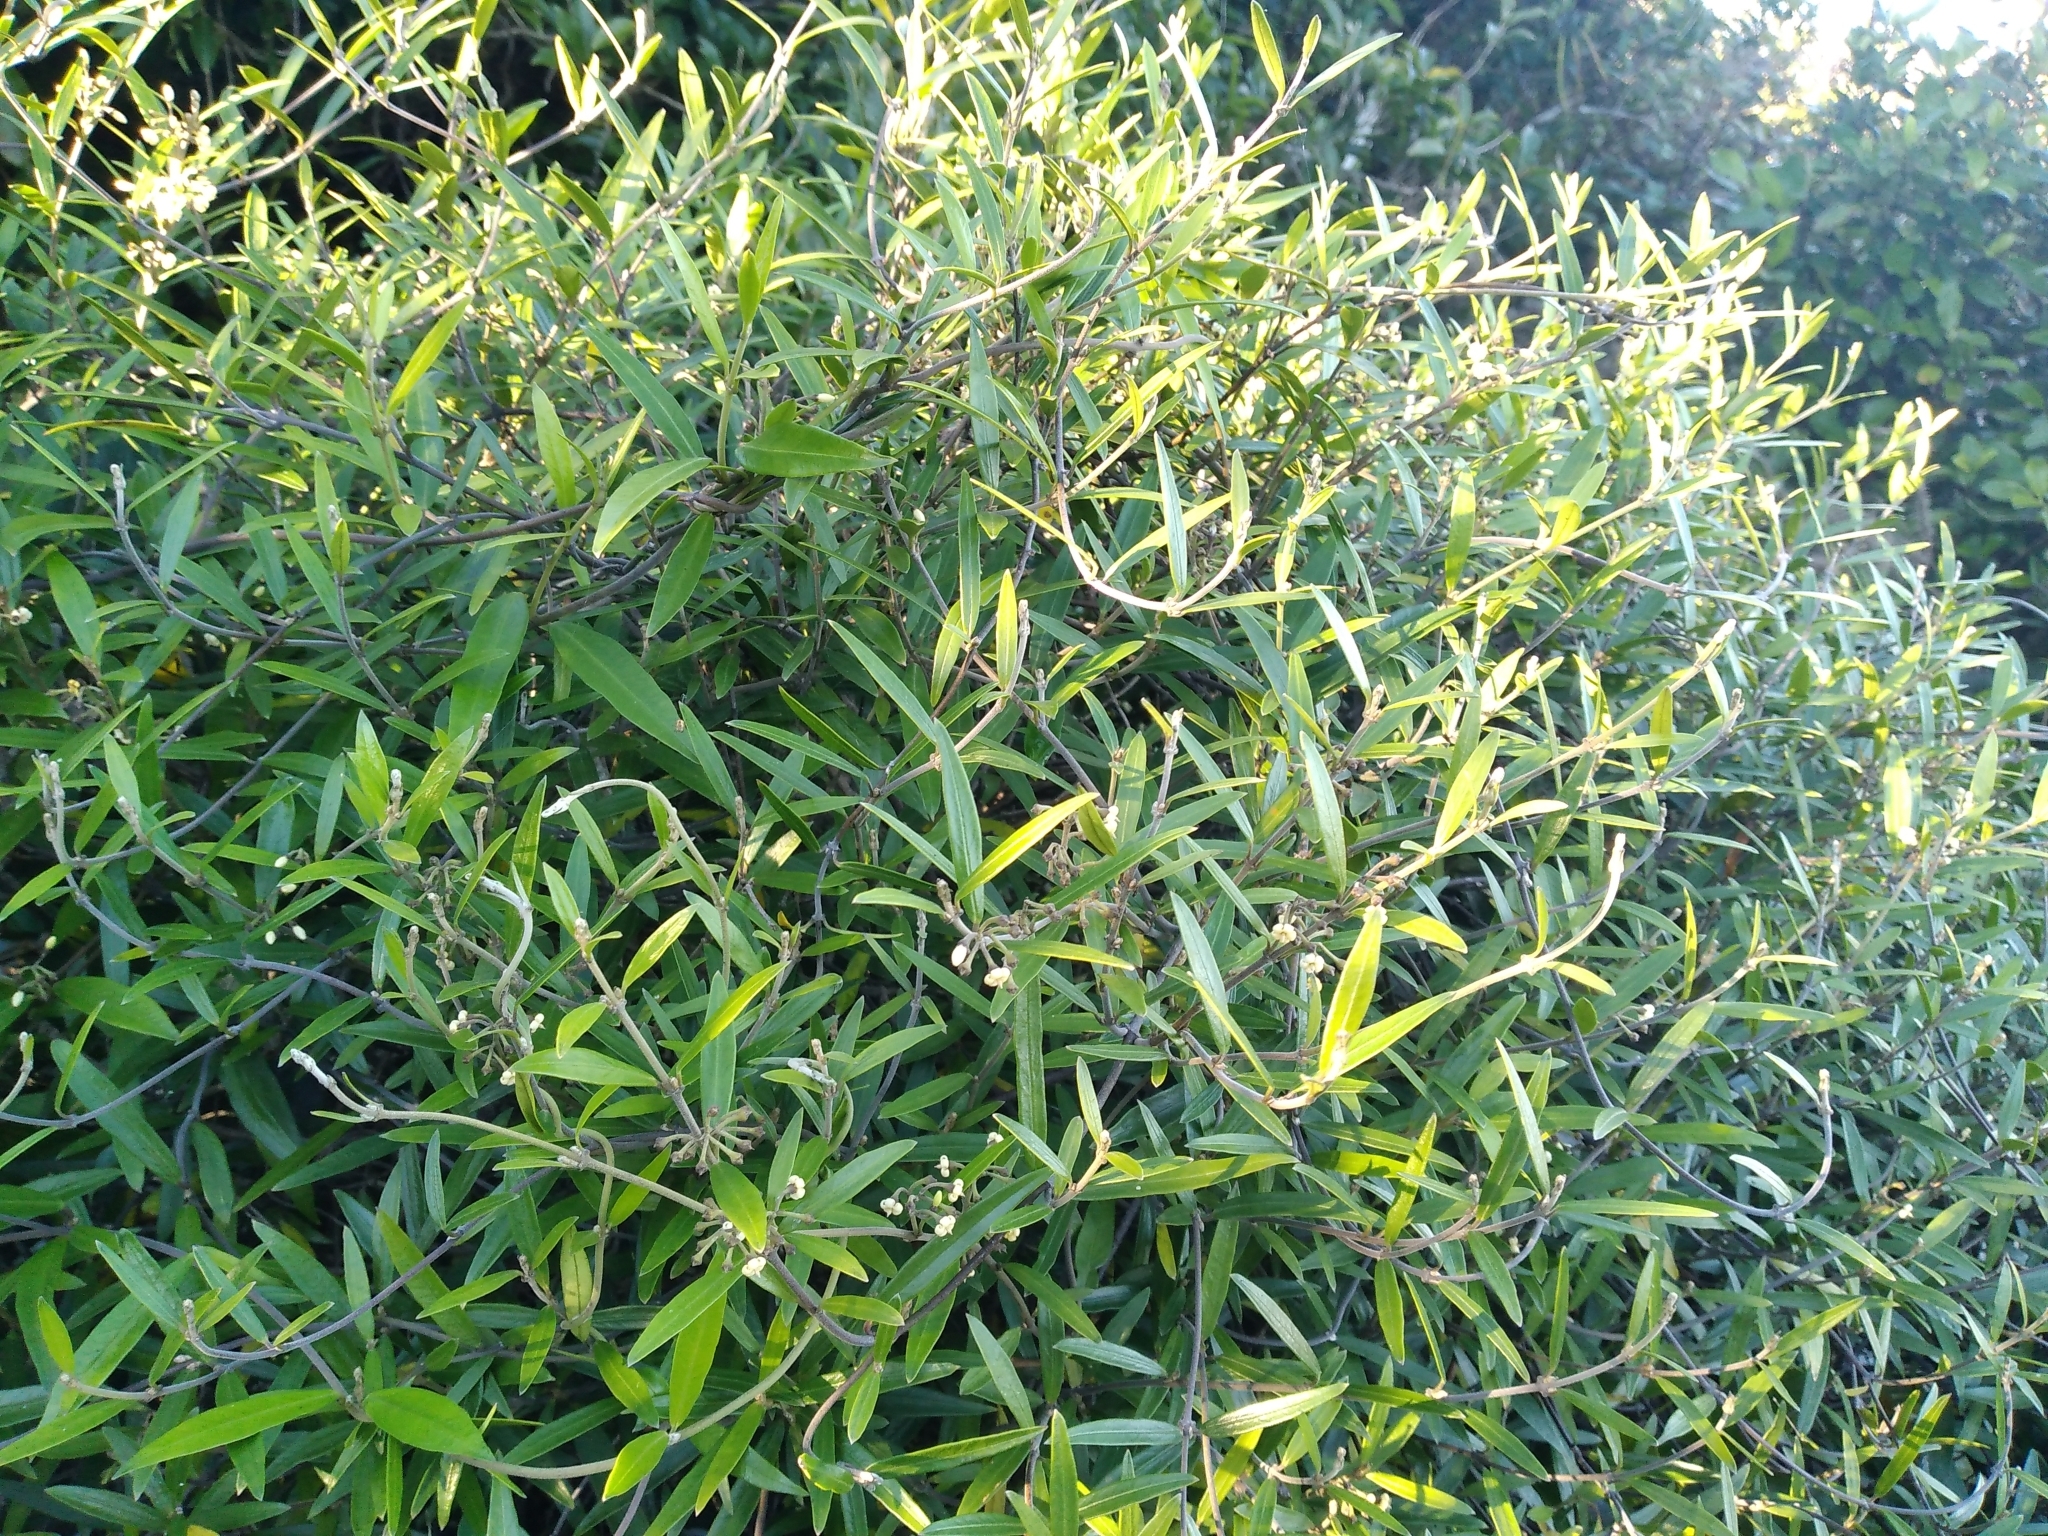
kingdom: Plantae
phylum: Tracheophyta
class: Magnoliopsida
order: Gentianales
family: Apocynaceae
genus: Parsonsia
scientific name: Parsonsia capsularis
